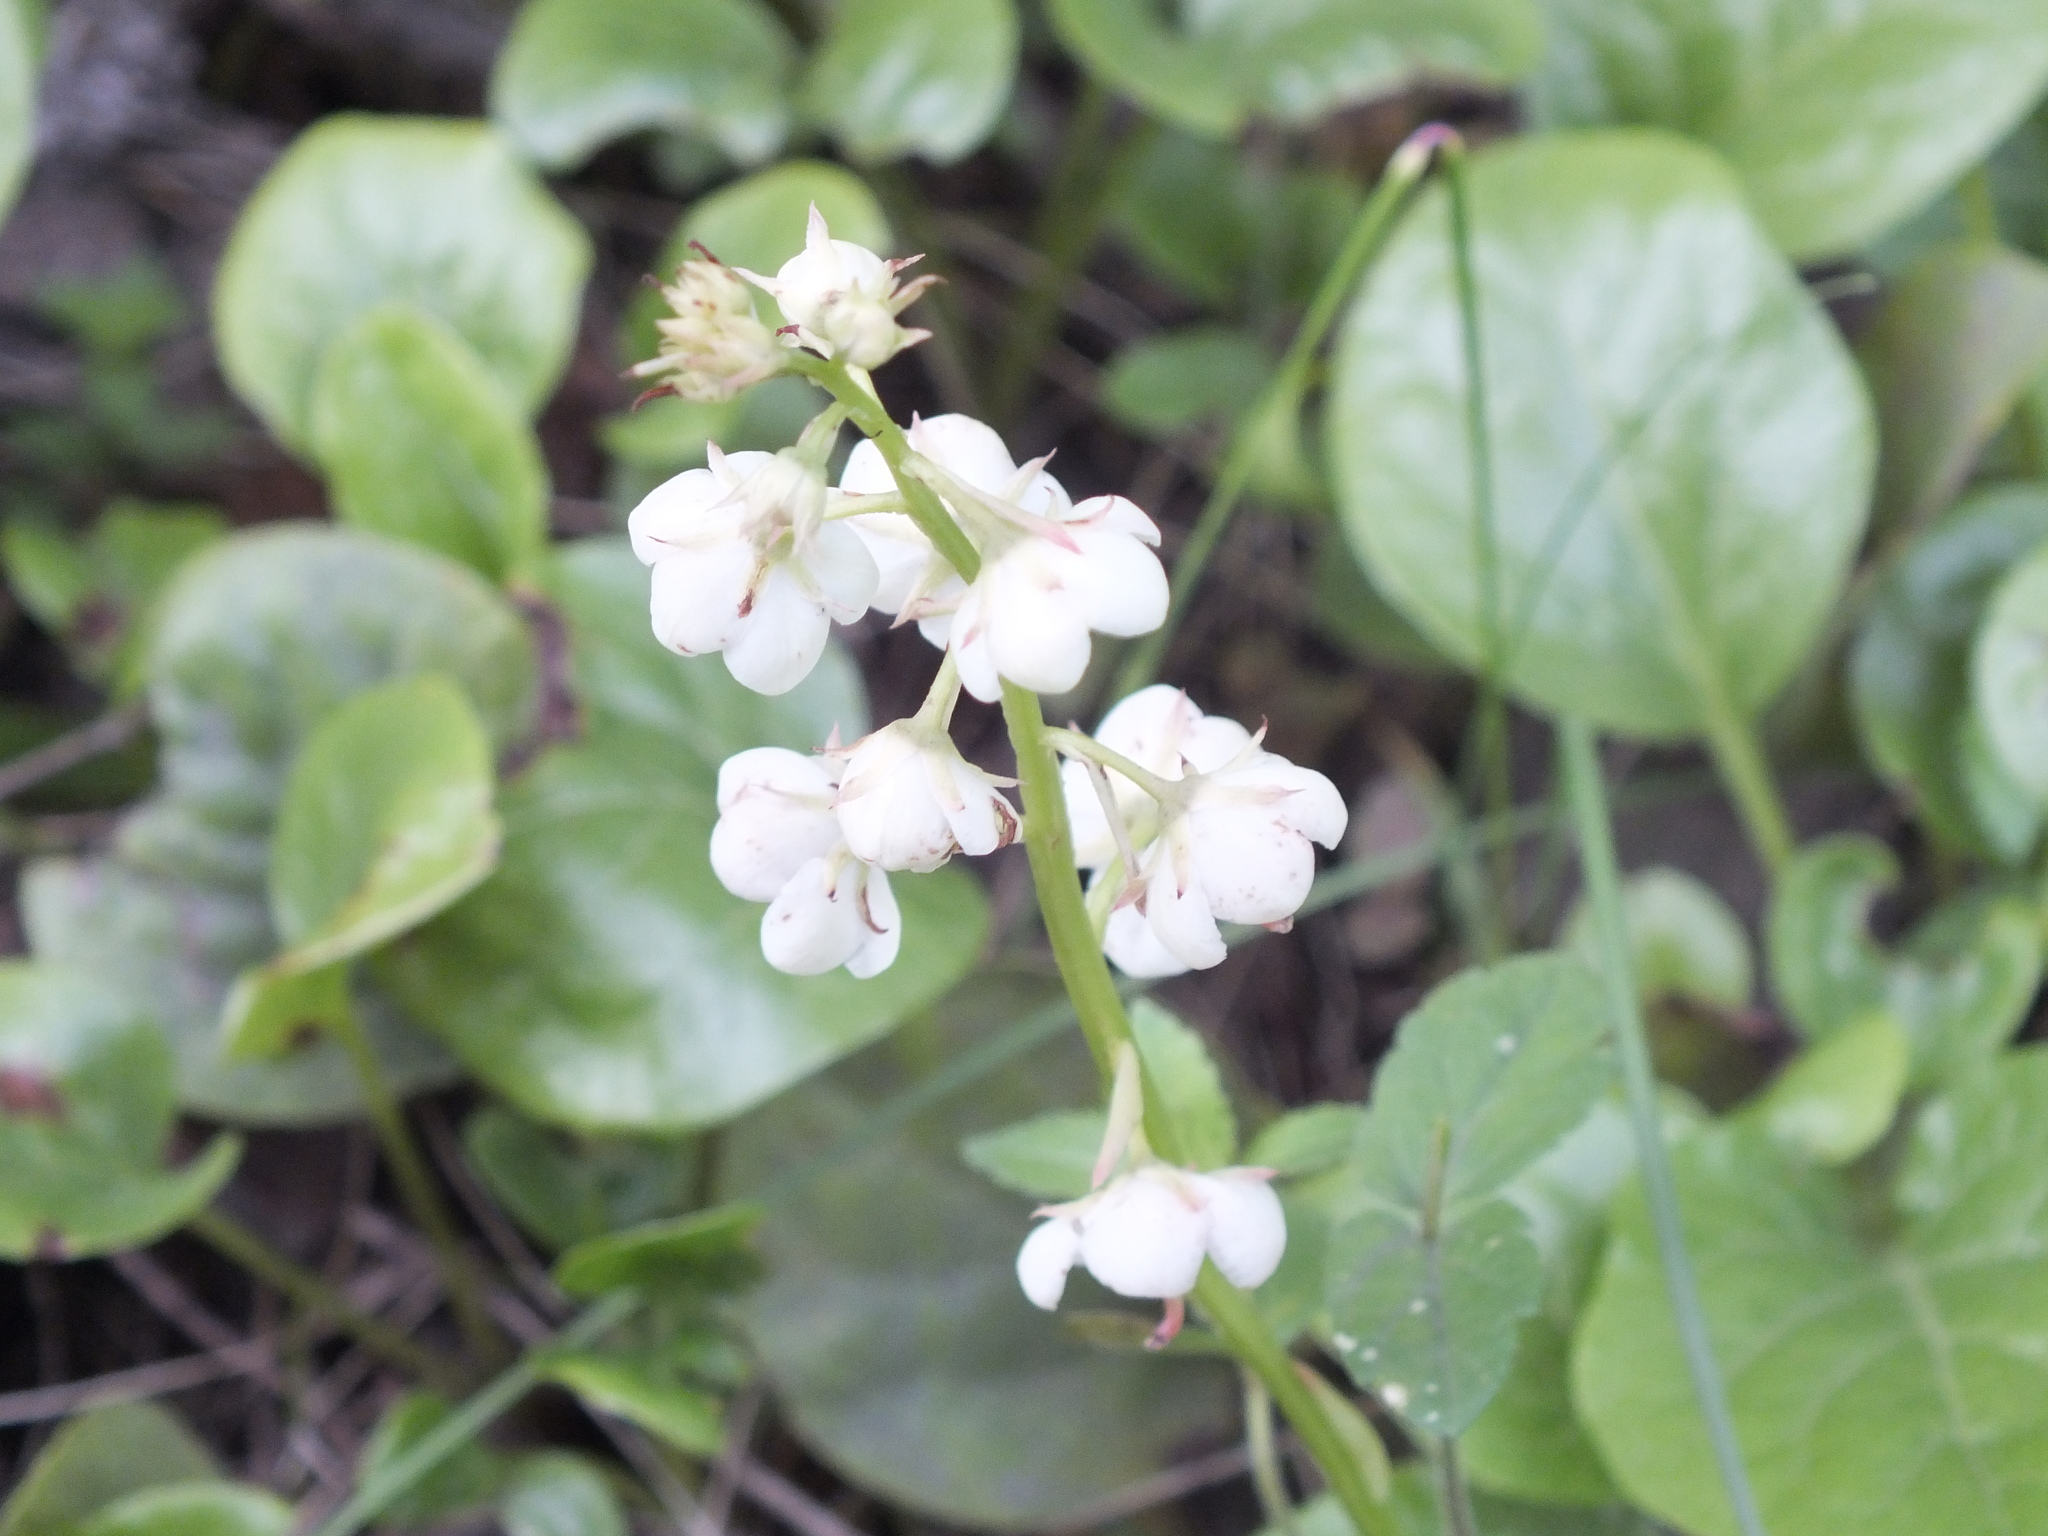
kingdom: Plantae
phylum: Tracheophyta
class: Magnoliopsida
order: Ericales
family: Ericaceae
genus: Pyrola
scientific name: Pyrola rotundifolia
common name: Round-leaved wintergreen
